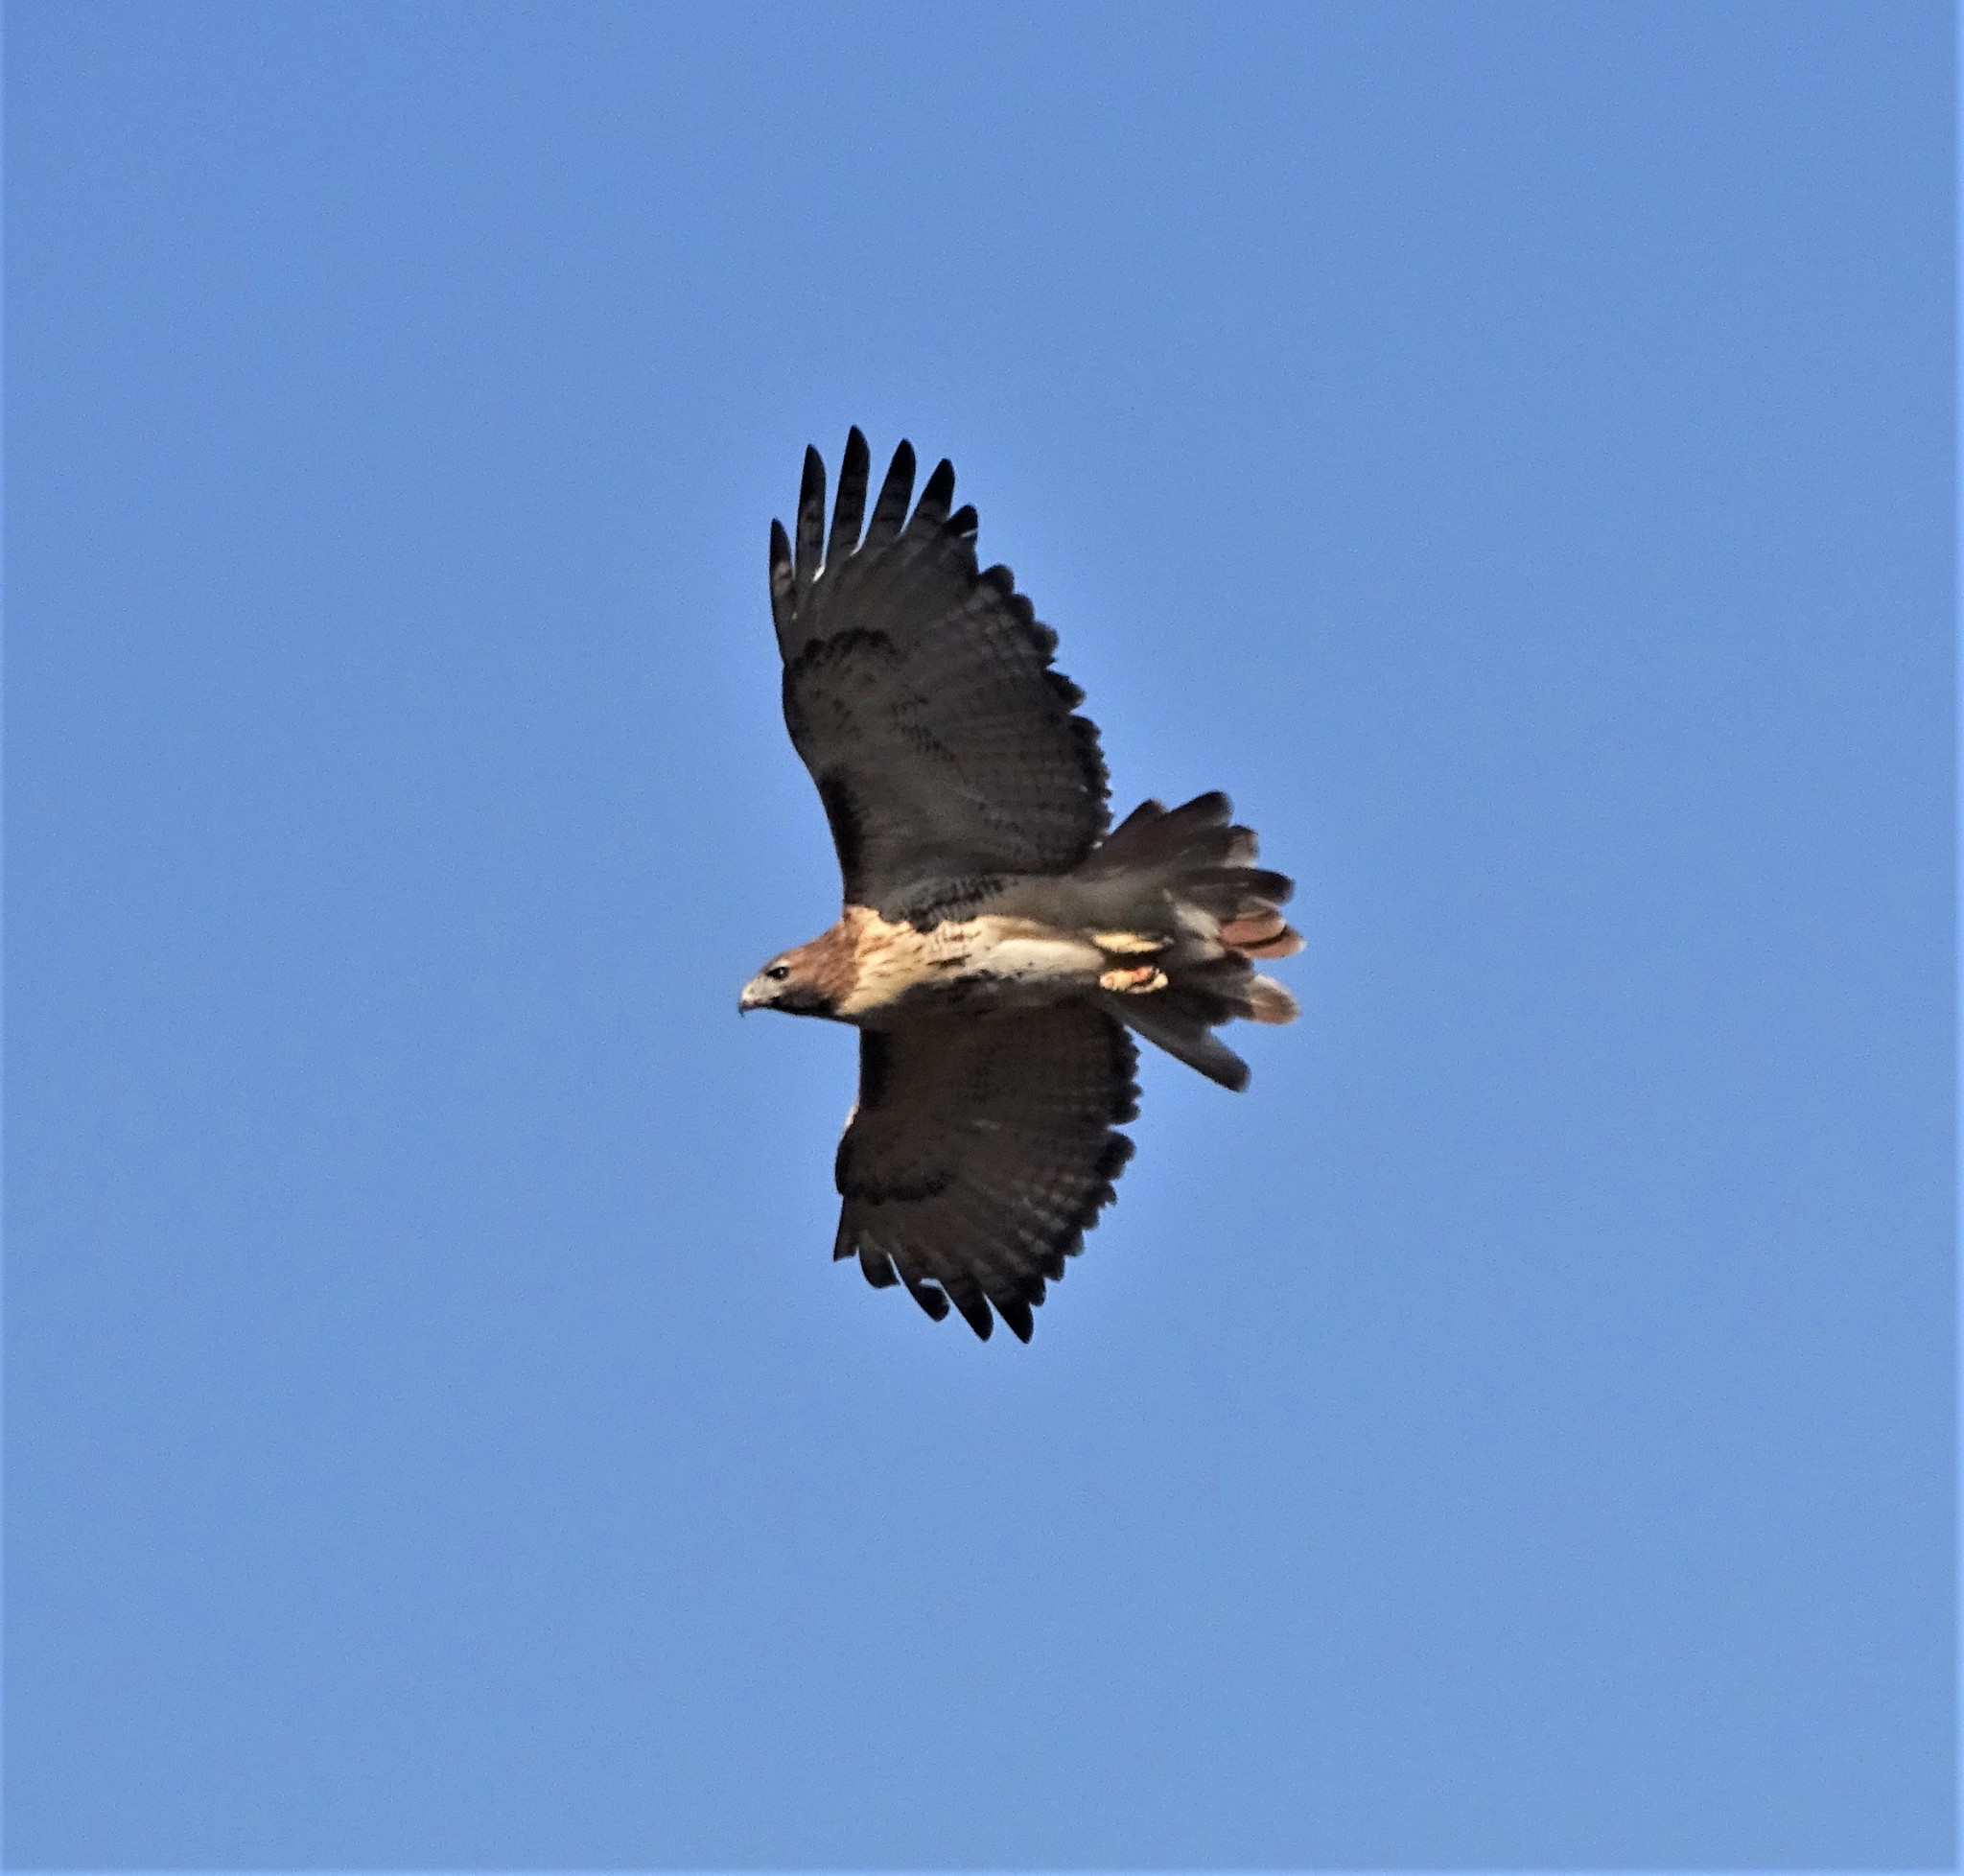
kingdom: Animalia
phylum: Chordata
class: Aves
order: Accipitriformes
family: Accipitridae
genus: Buteo
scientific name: Buteo jamaicensis
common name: Red-tailed hawk
